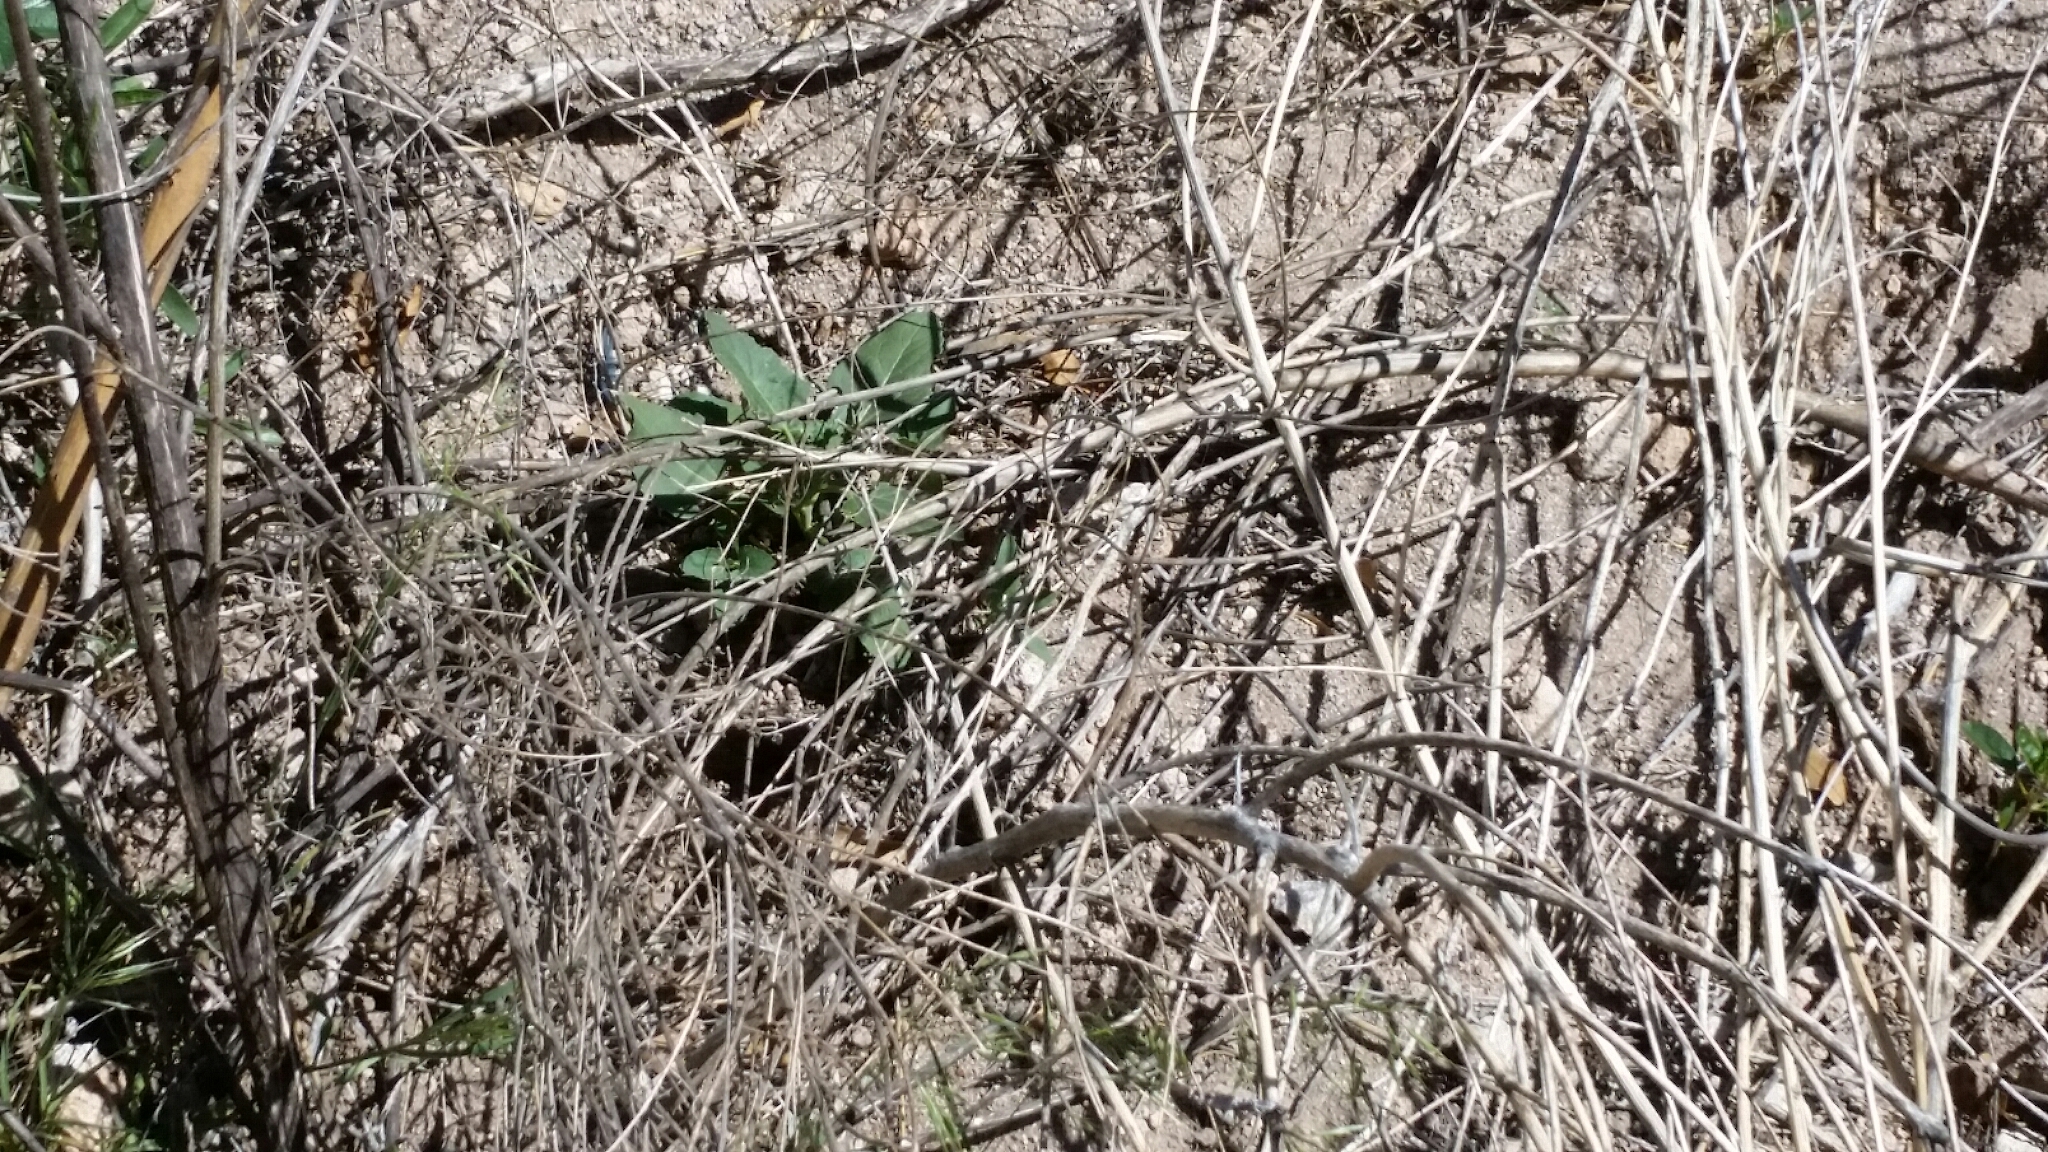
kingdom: Plantae
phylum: Tracheophyta
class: Magnoliopsida
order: Solanales
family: Solanaceae
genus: Datura
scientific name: Datura wrightii
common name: Sacred thorn-apple
